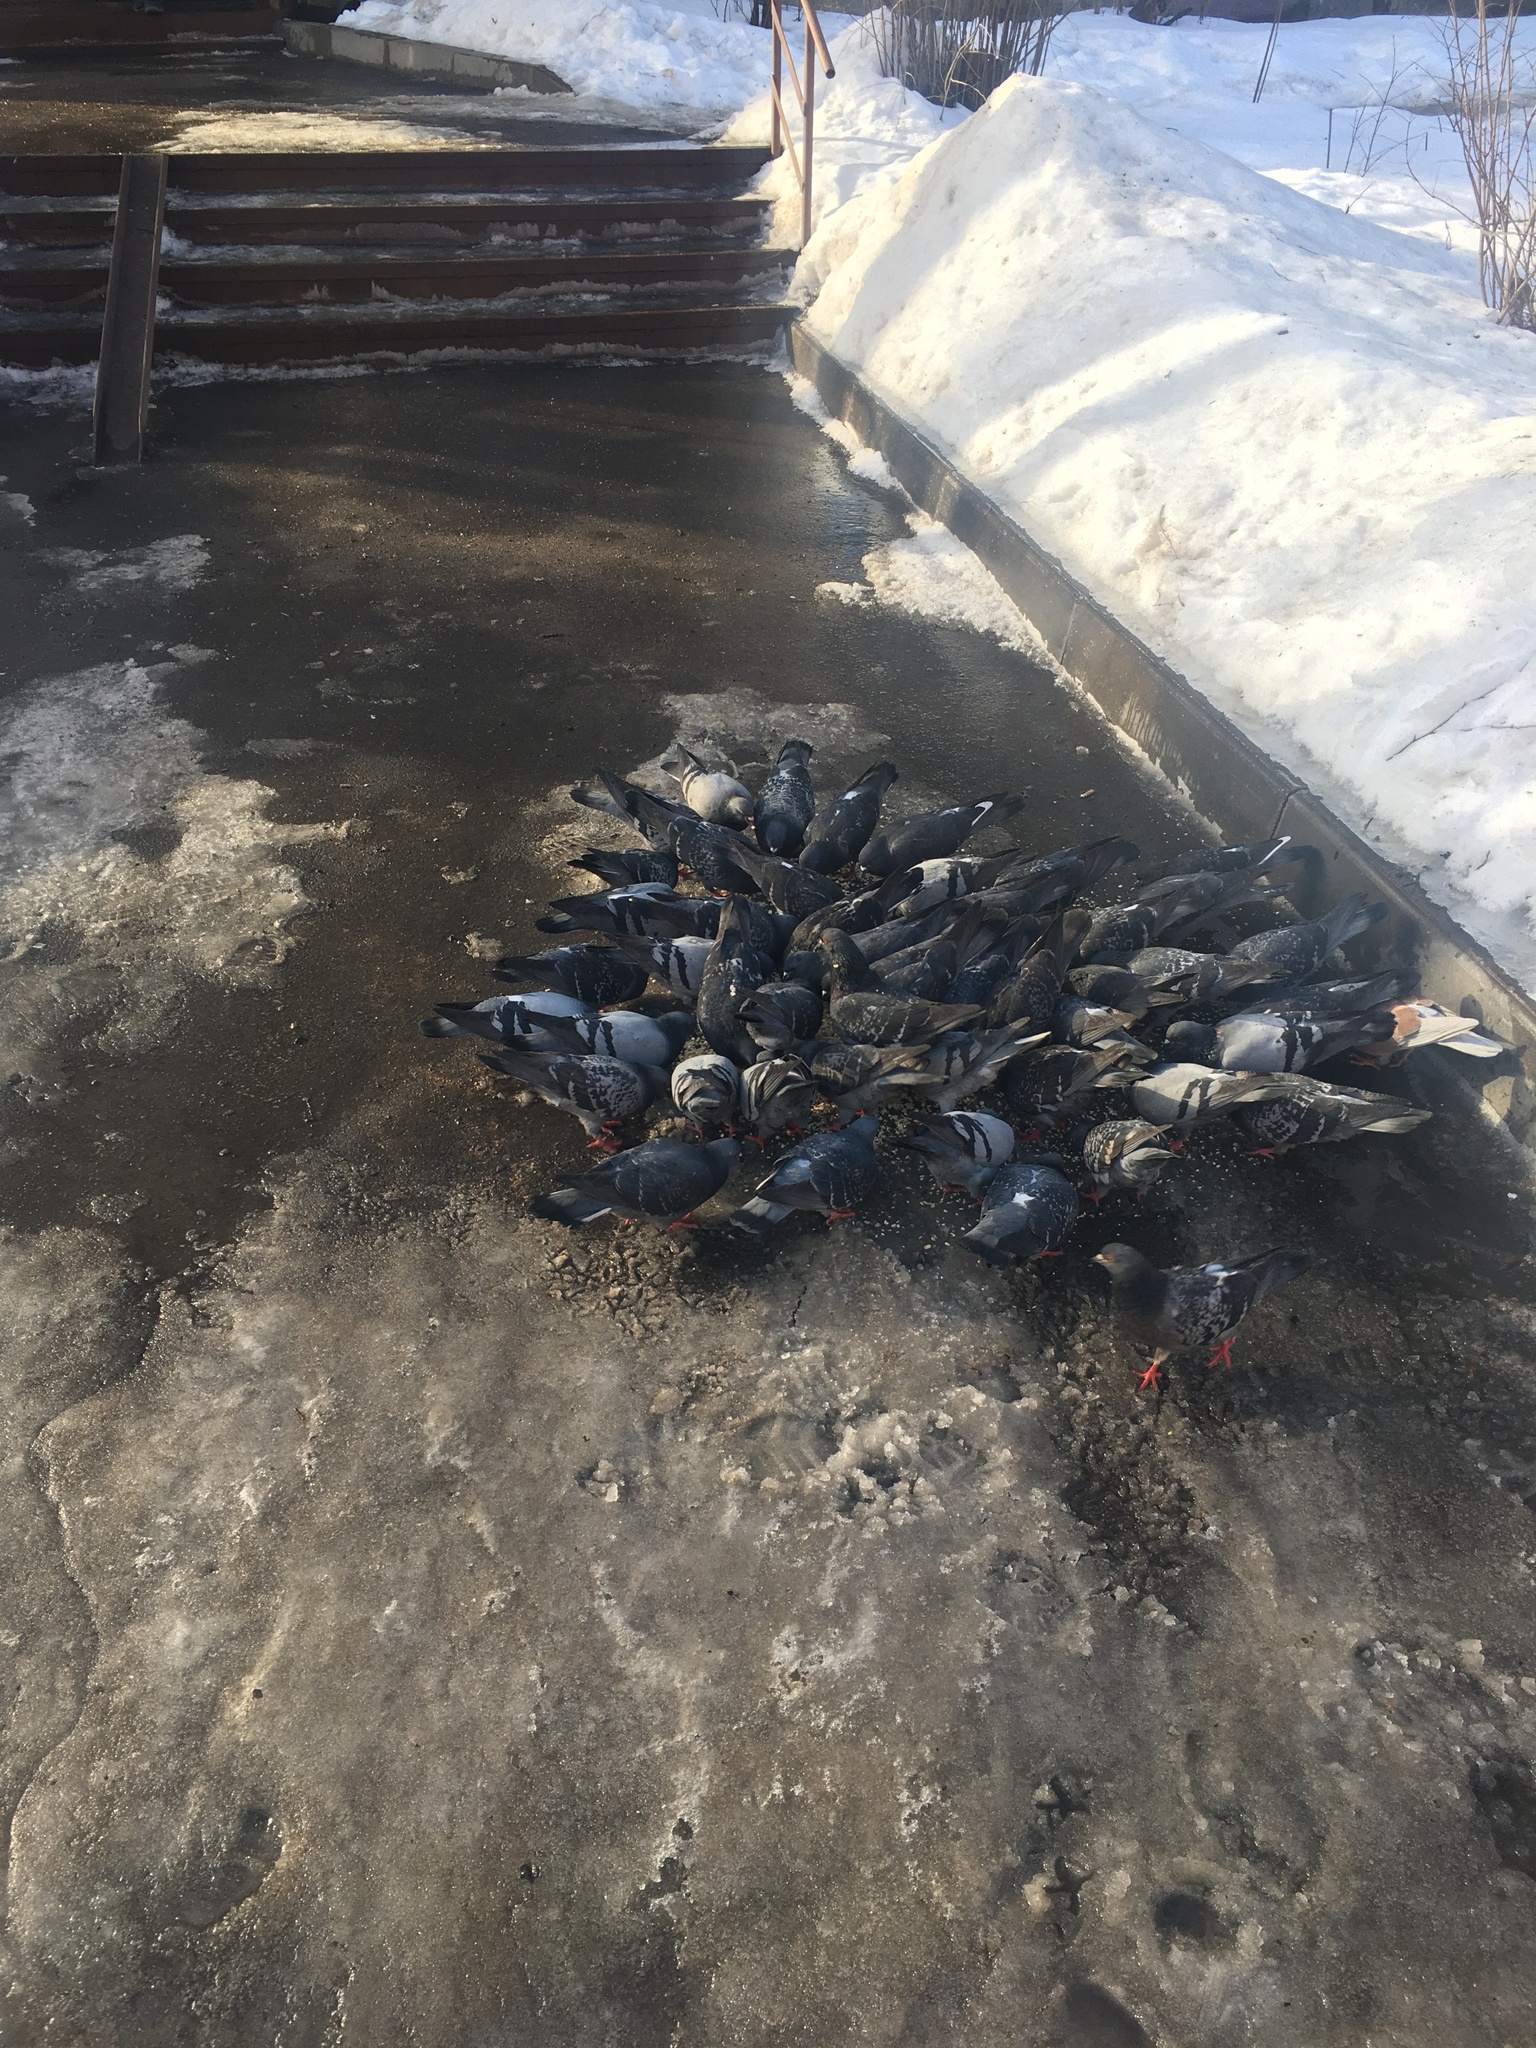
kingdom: Animalia
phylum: Chordata
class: Aves
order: Columbiformes
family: Columbidae
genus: Columba
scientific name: Columba livia
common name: Rock pigeon
